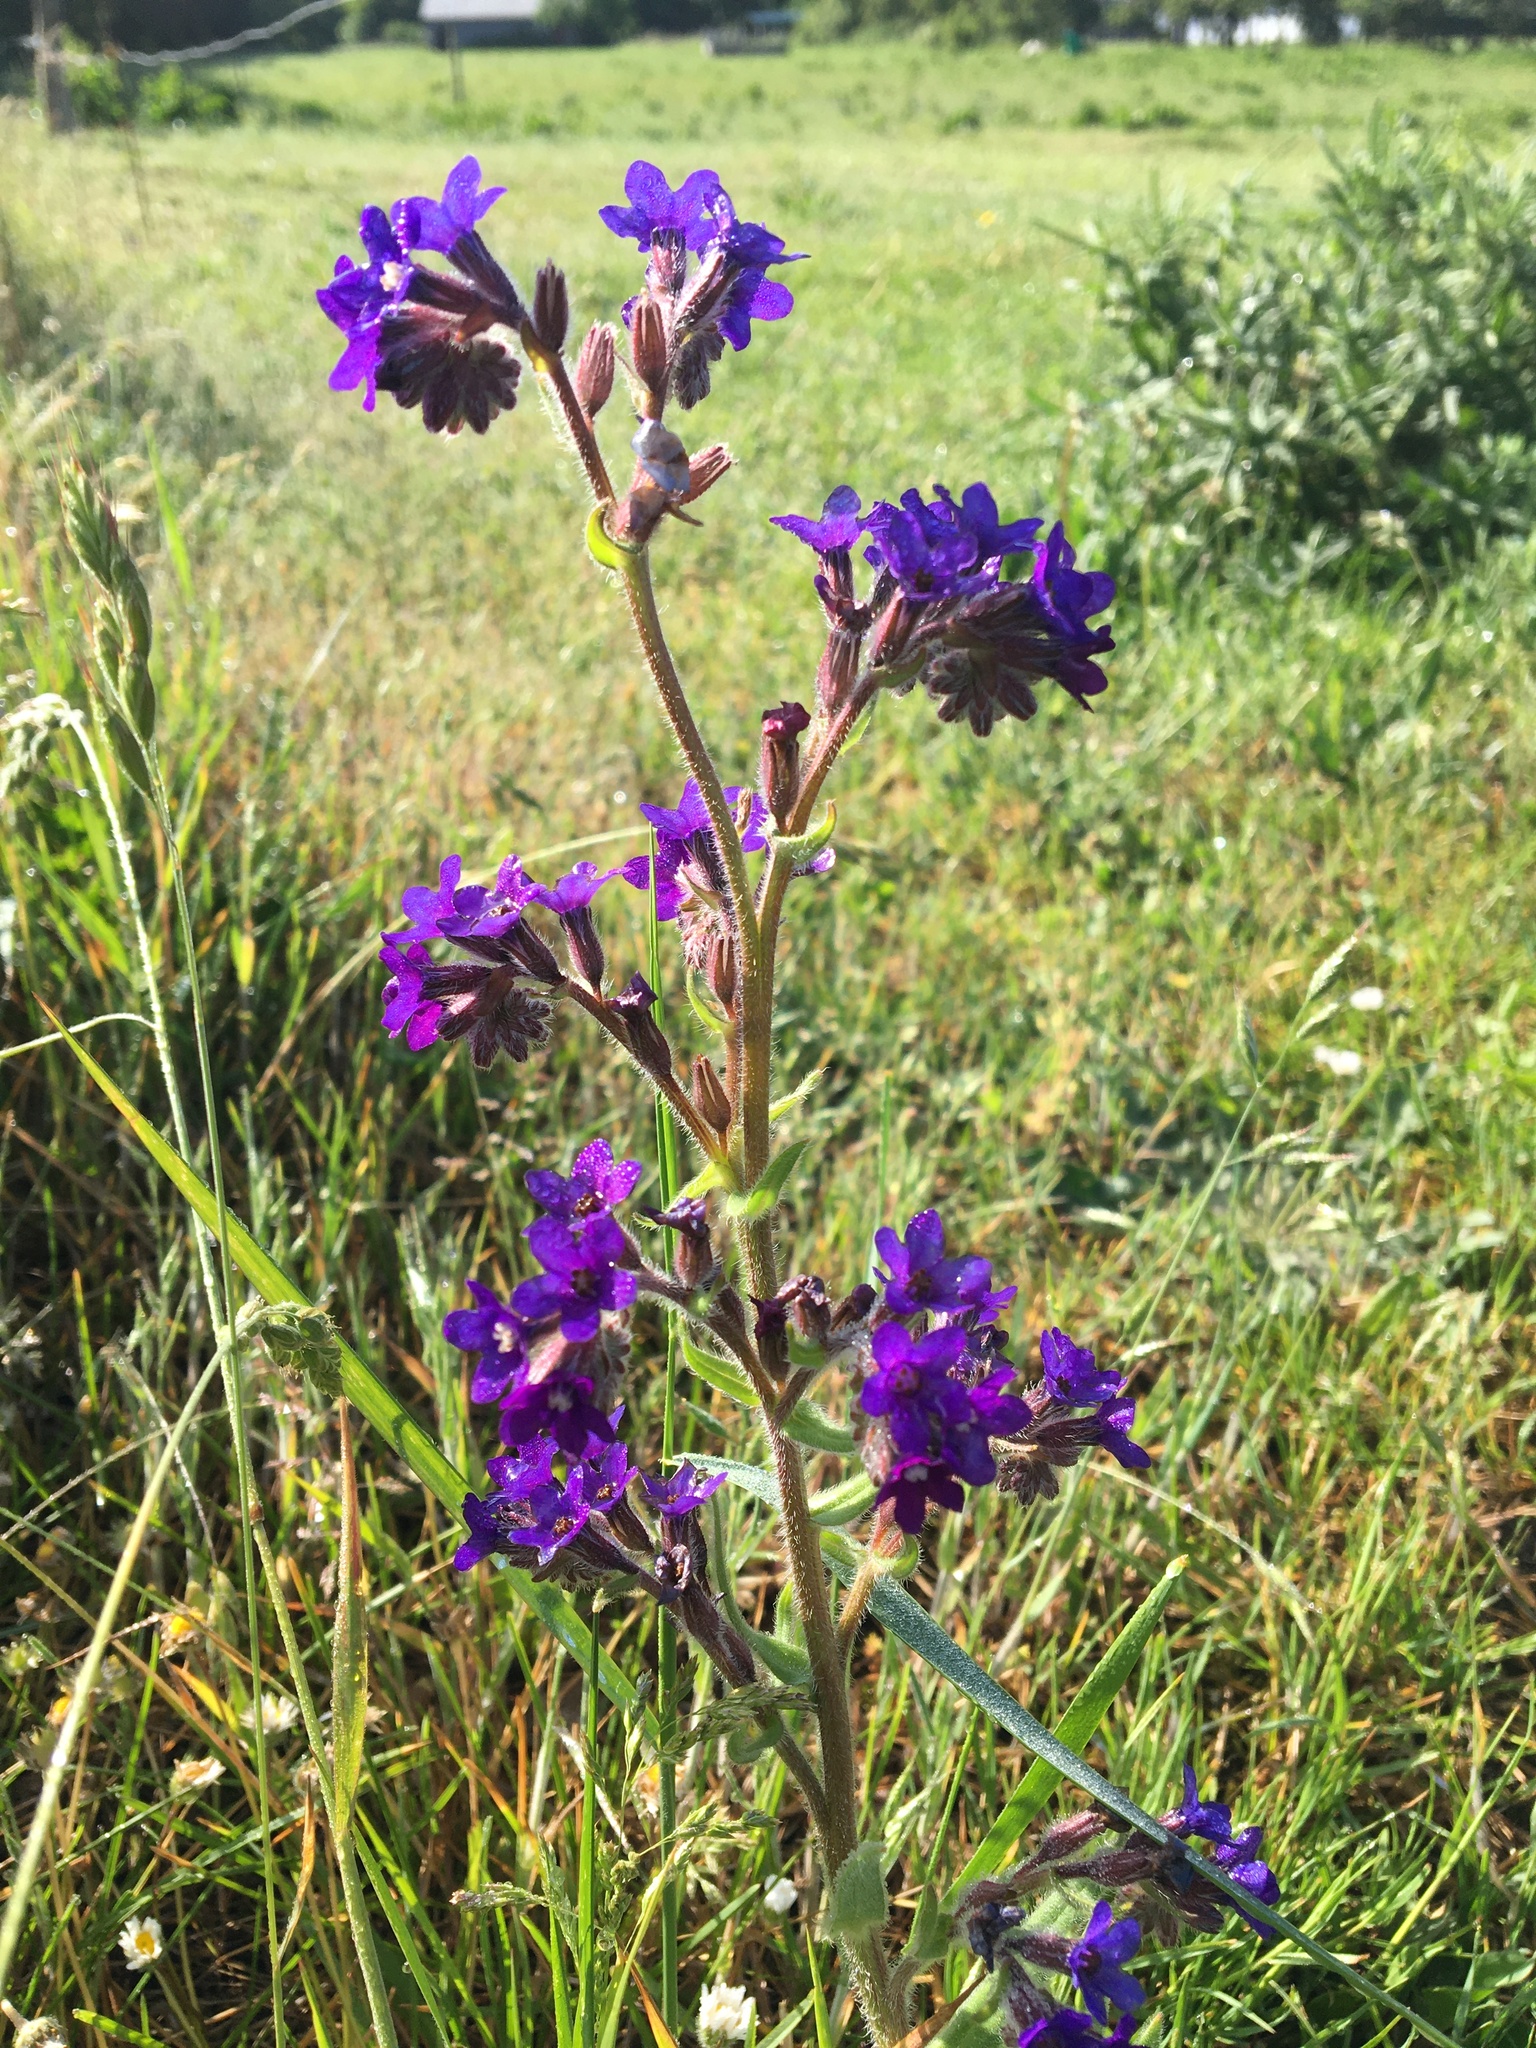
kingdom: Plantae
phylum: Tracheophyta
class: Magnoliopsida
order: Boraginales
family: Boraginaceae
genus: Anchusa
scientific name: Anchusa officinalis
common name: Alkanet
